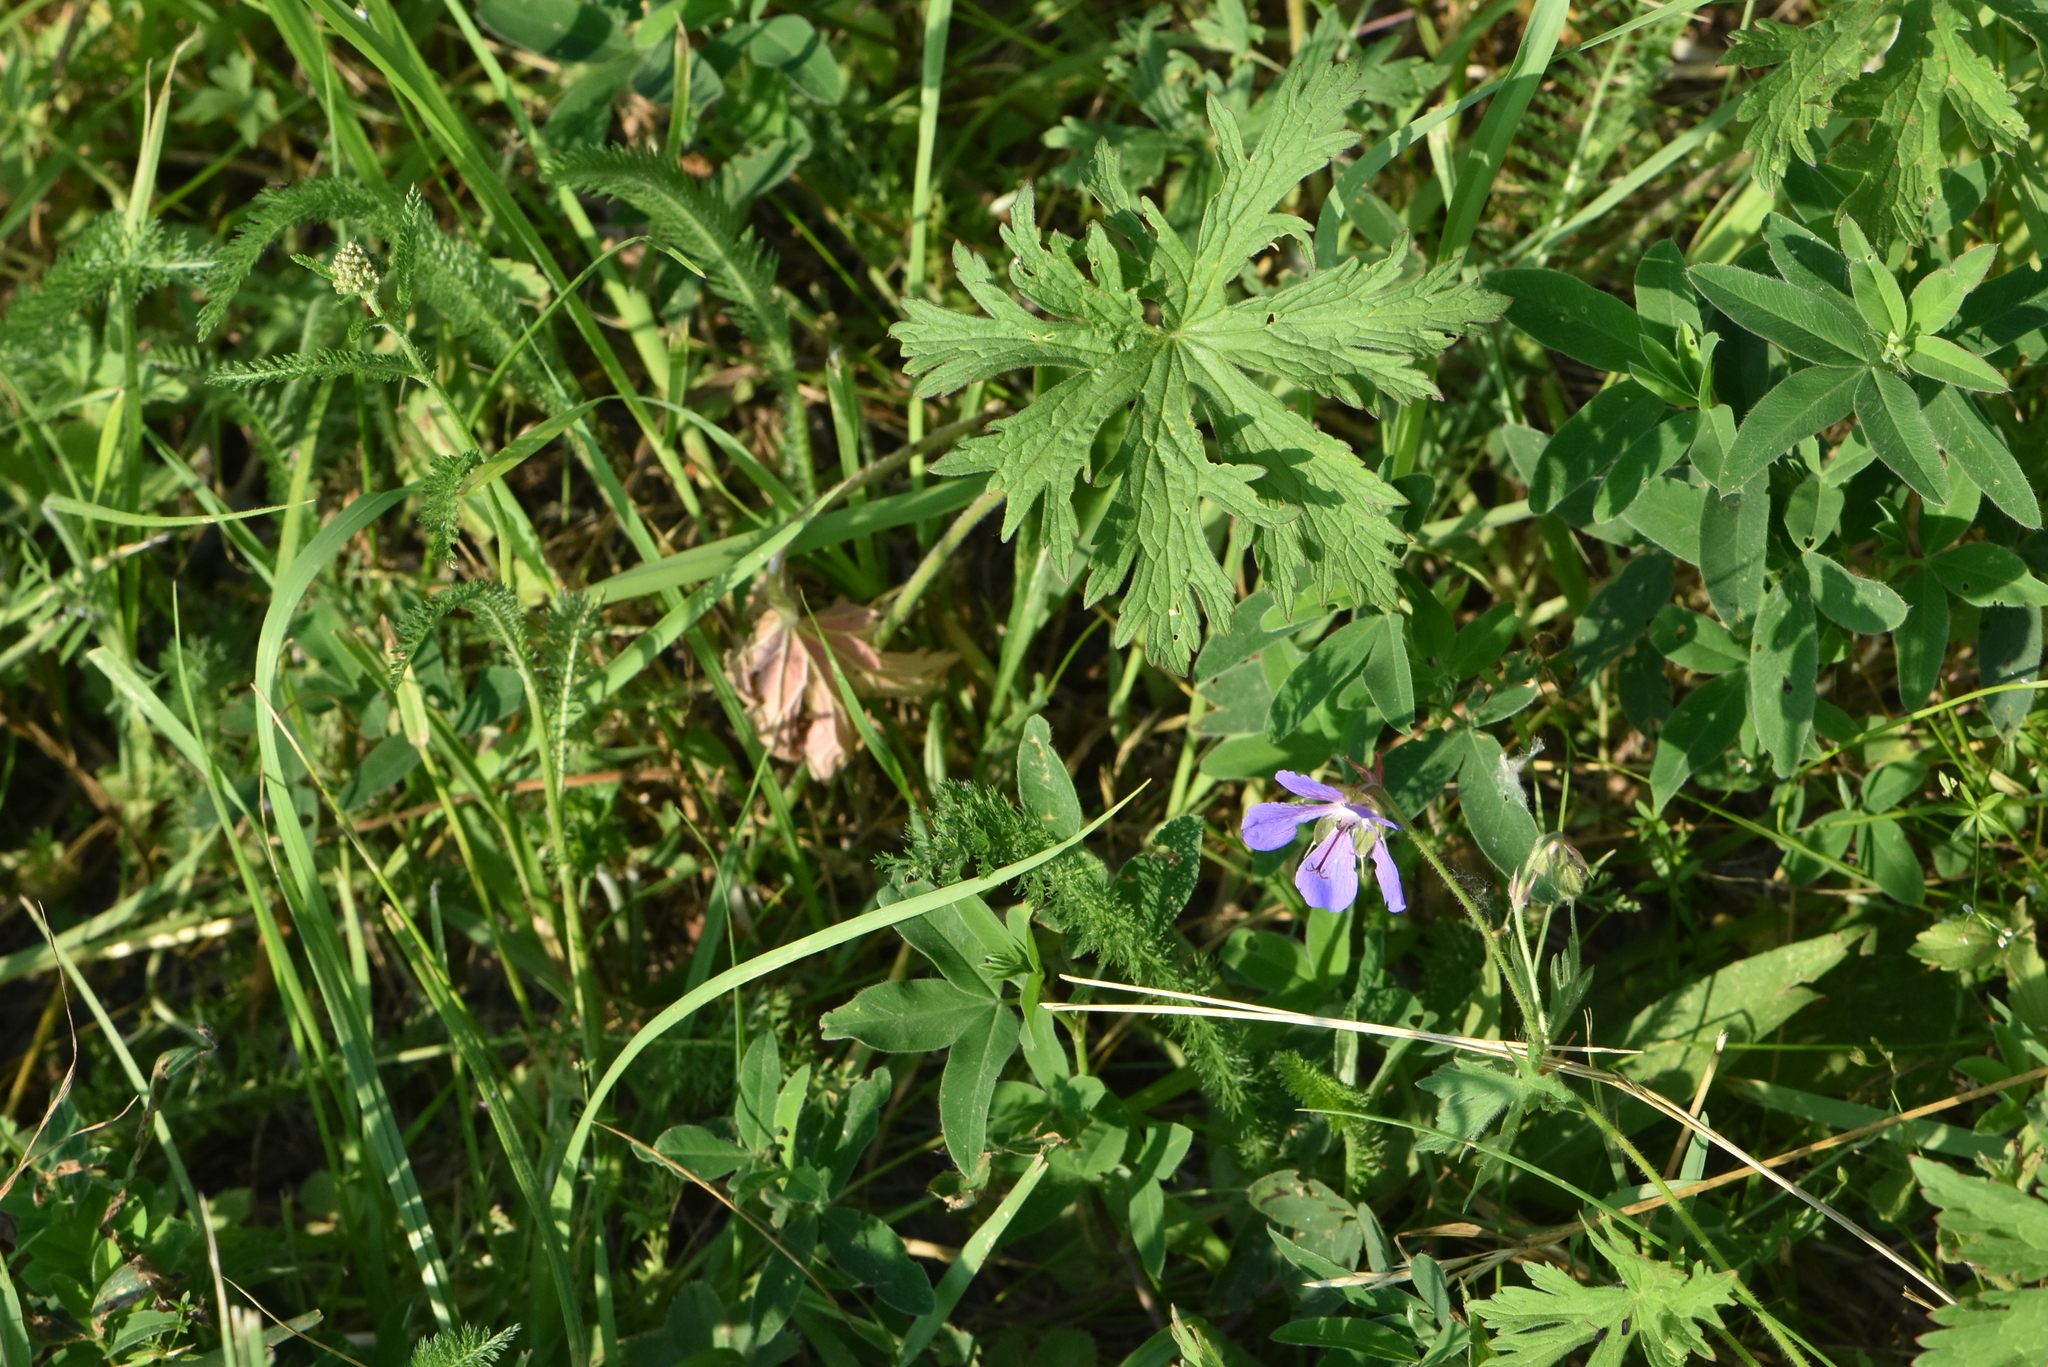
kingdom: Plantae
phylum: Tracheophyta
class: Magnoliopsida
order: Geraniales
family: Geraniaceae
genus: Geranium
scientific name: Geranium pratense
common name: Meadow crane's-bill
